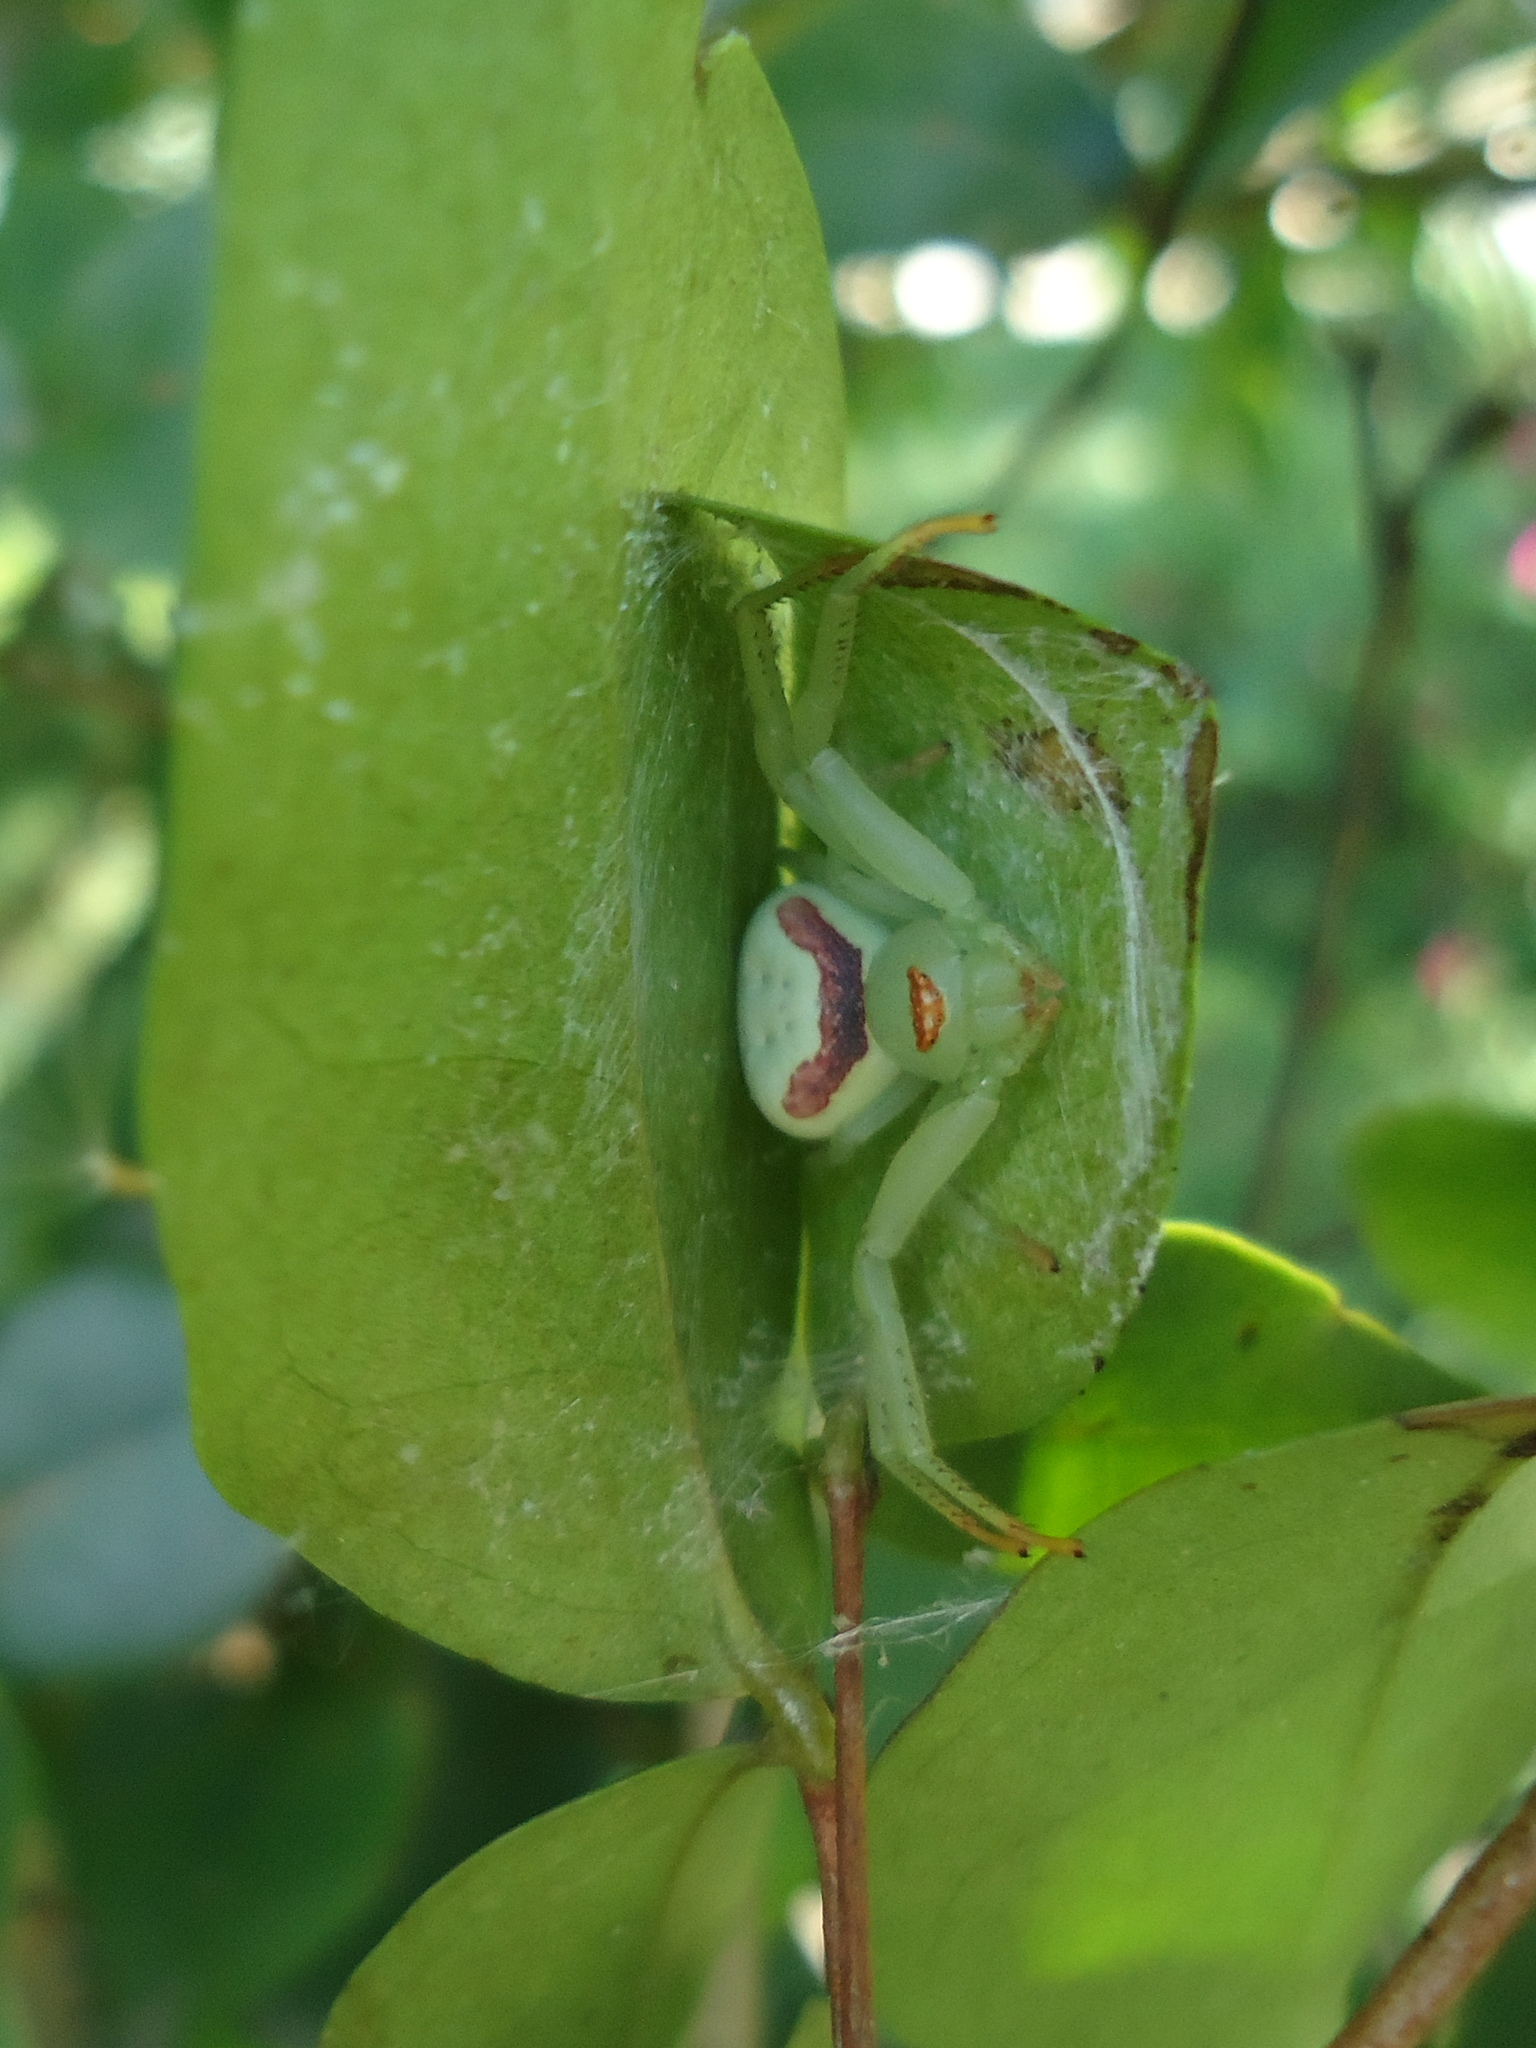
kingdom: Animalia
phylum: Arthropoda
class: Arachnida
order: Araneae
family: Thomisidae
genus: Misumenops
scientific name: Misumenops callinurus
